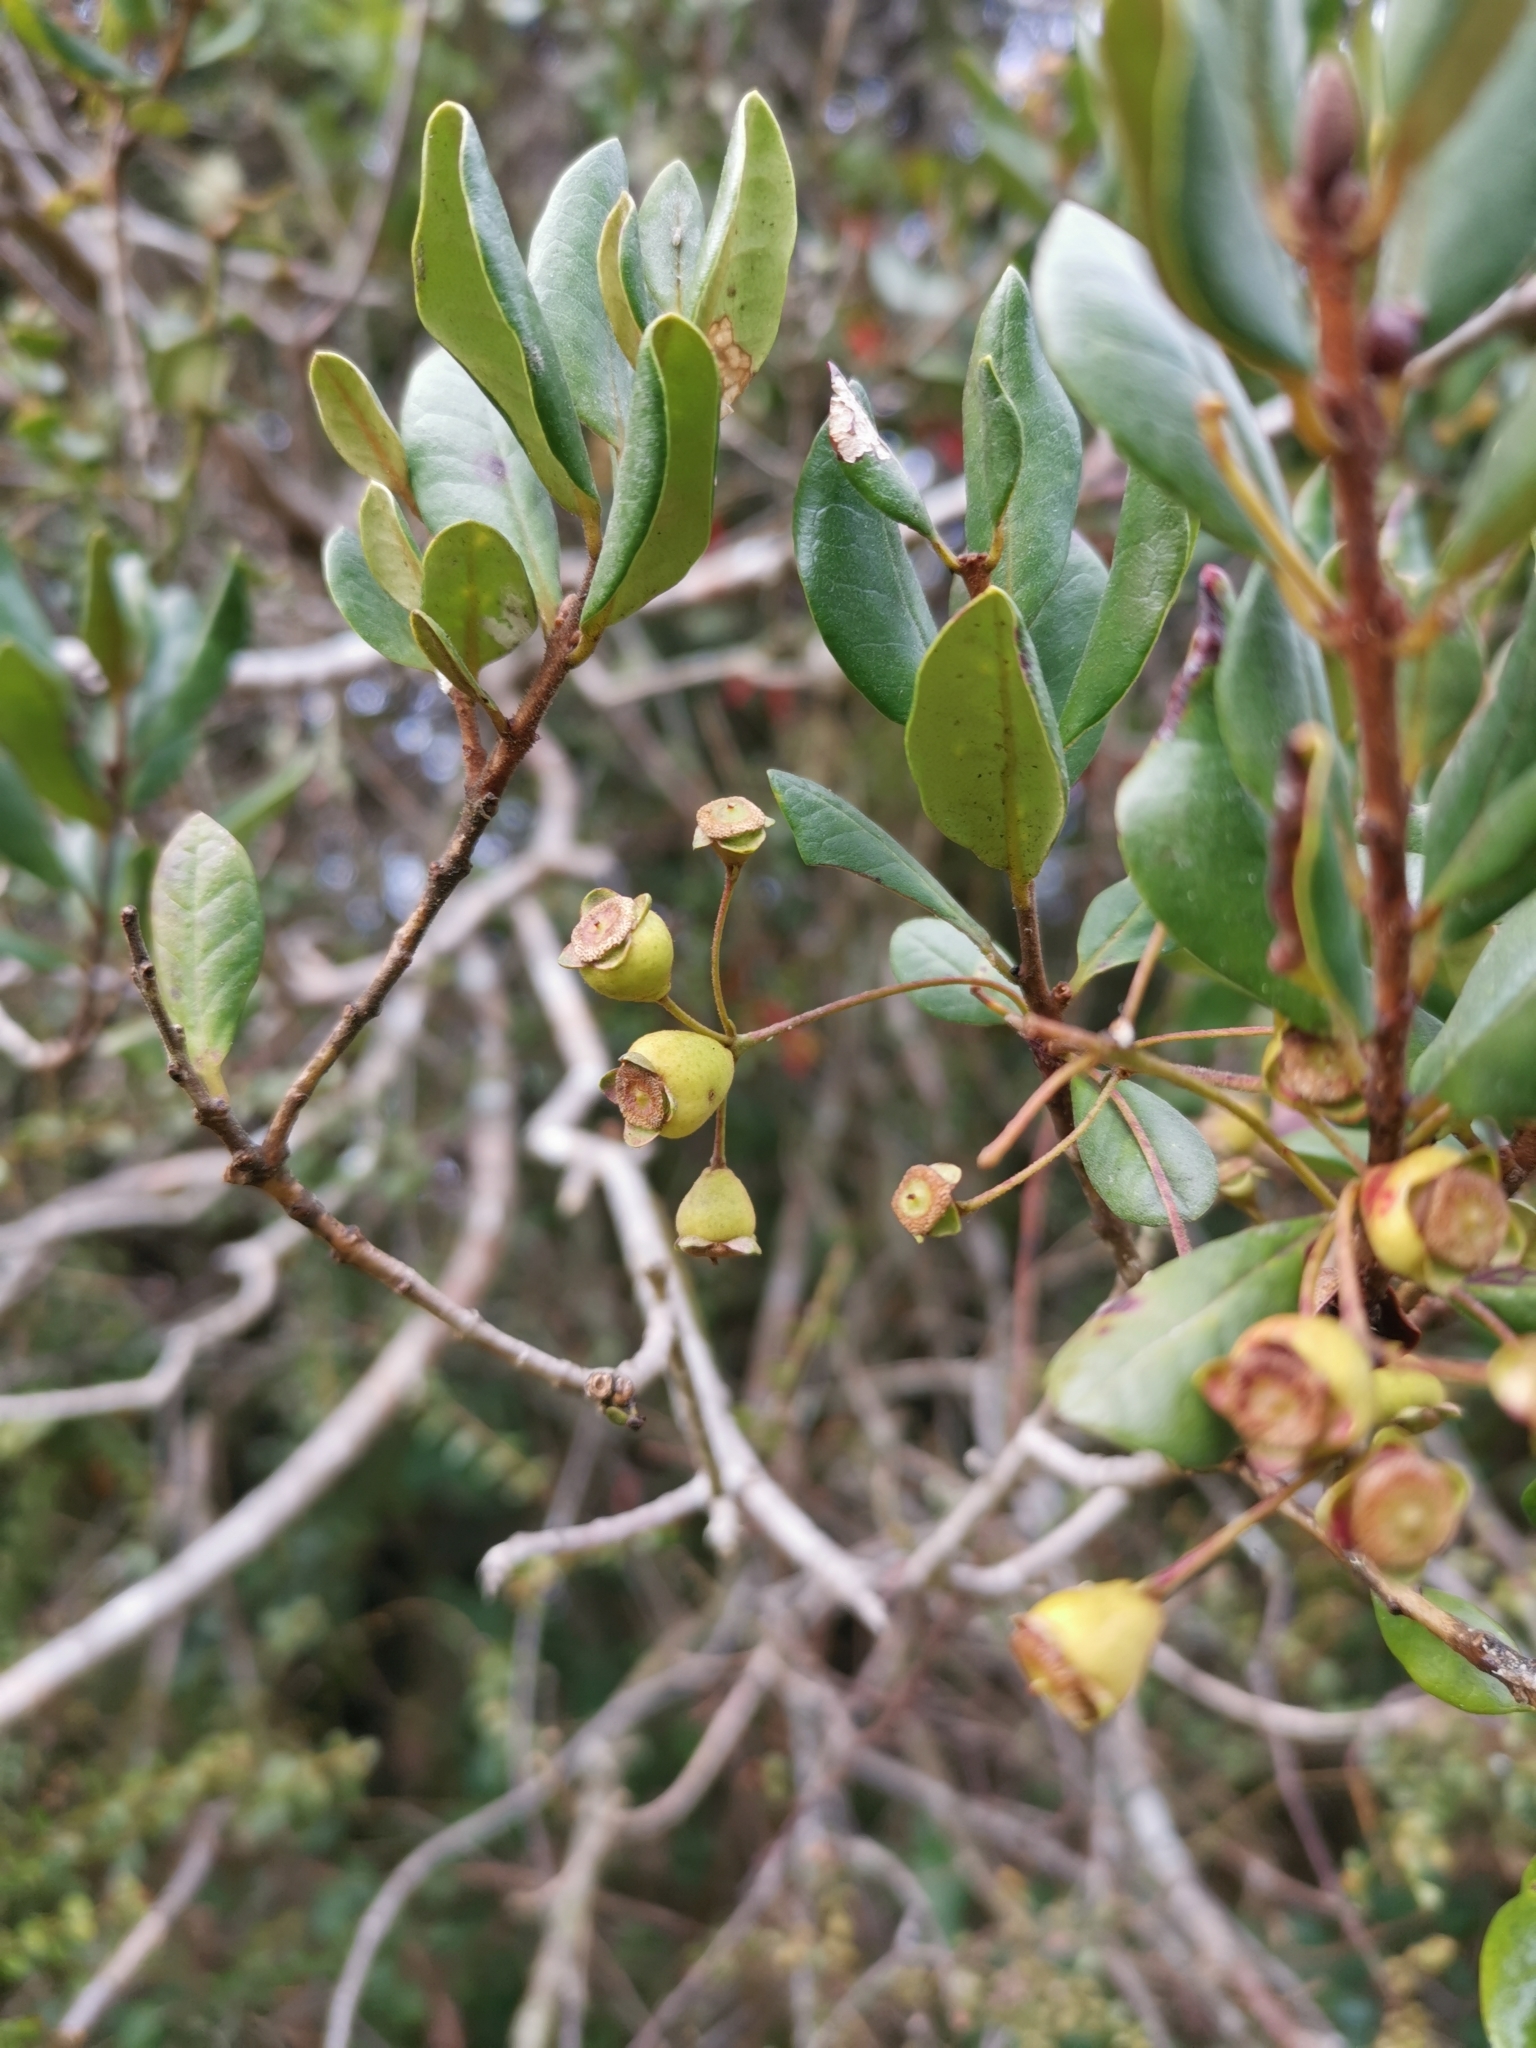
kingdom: Plantae
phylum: Tracheophyta
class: Magnoliopsida
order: Myrtales
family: Myrtaceae
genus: Myrceugenia
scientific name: Myrceugenia exsucca
